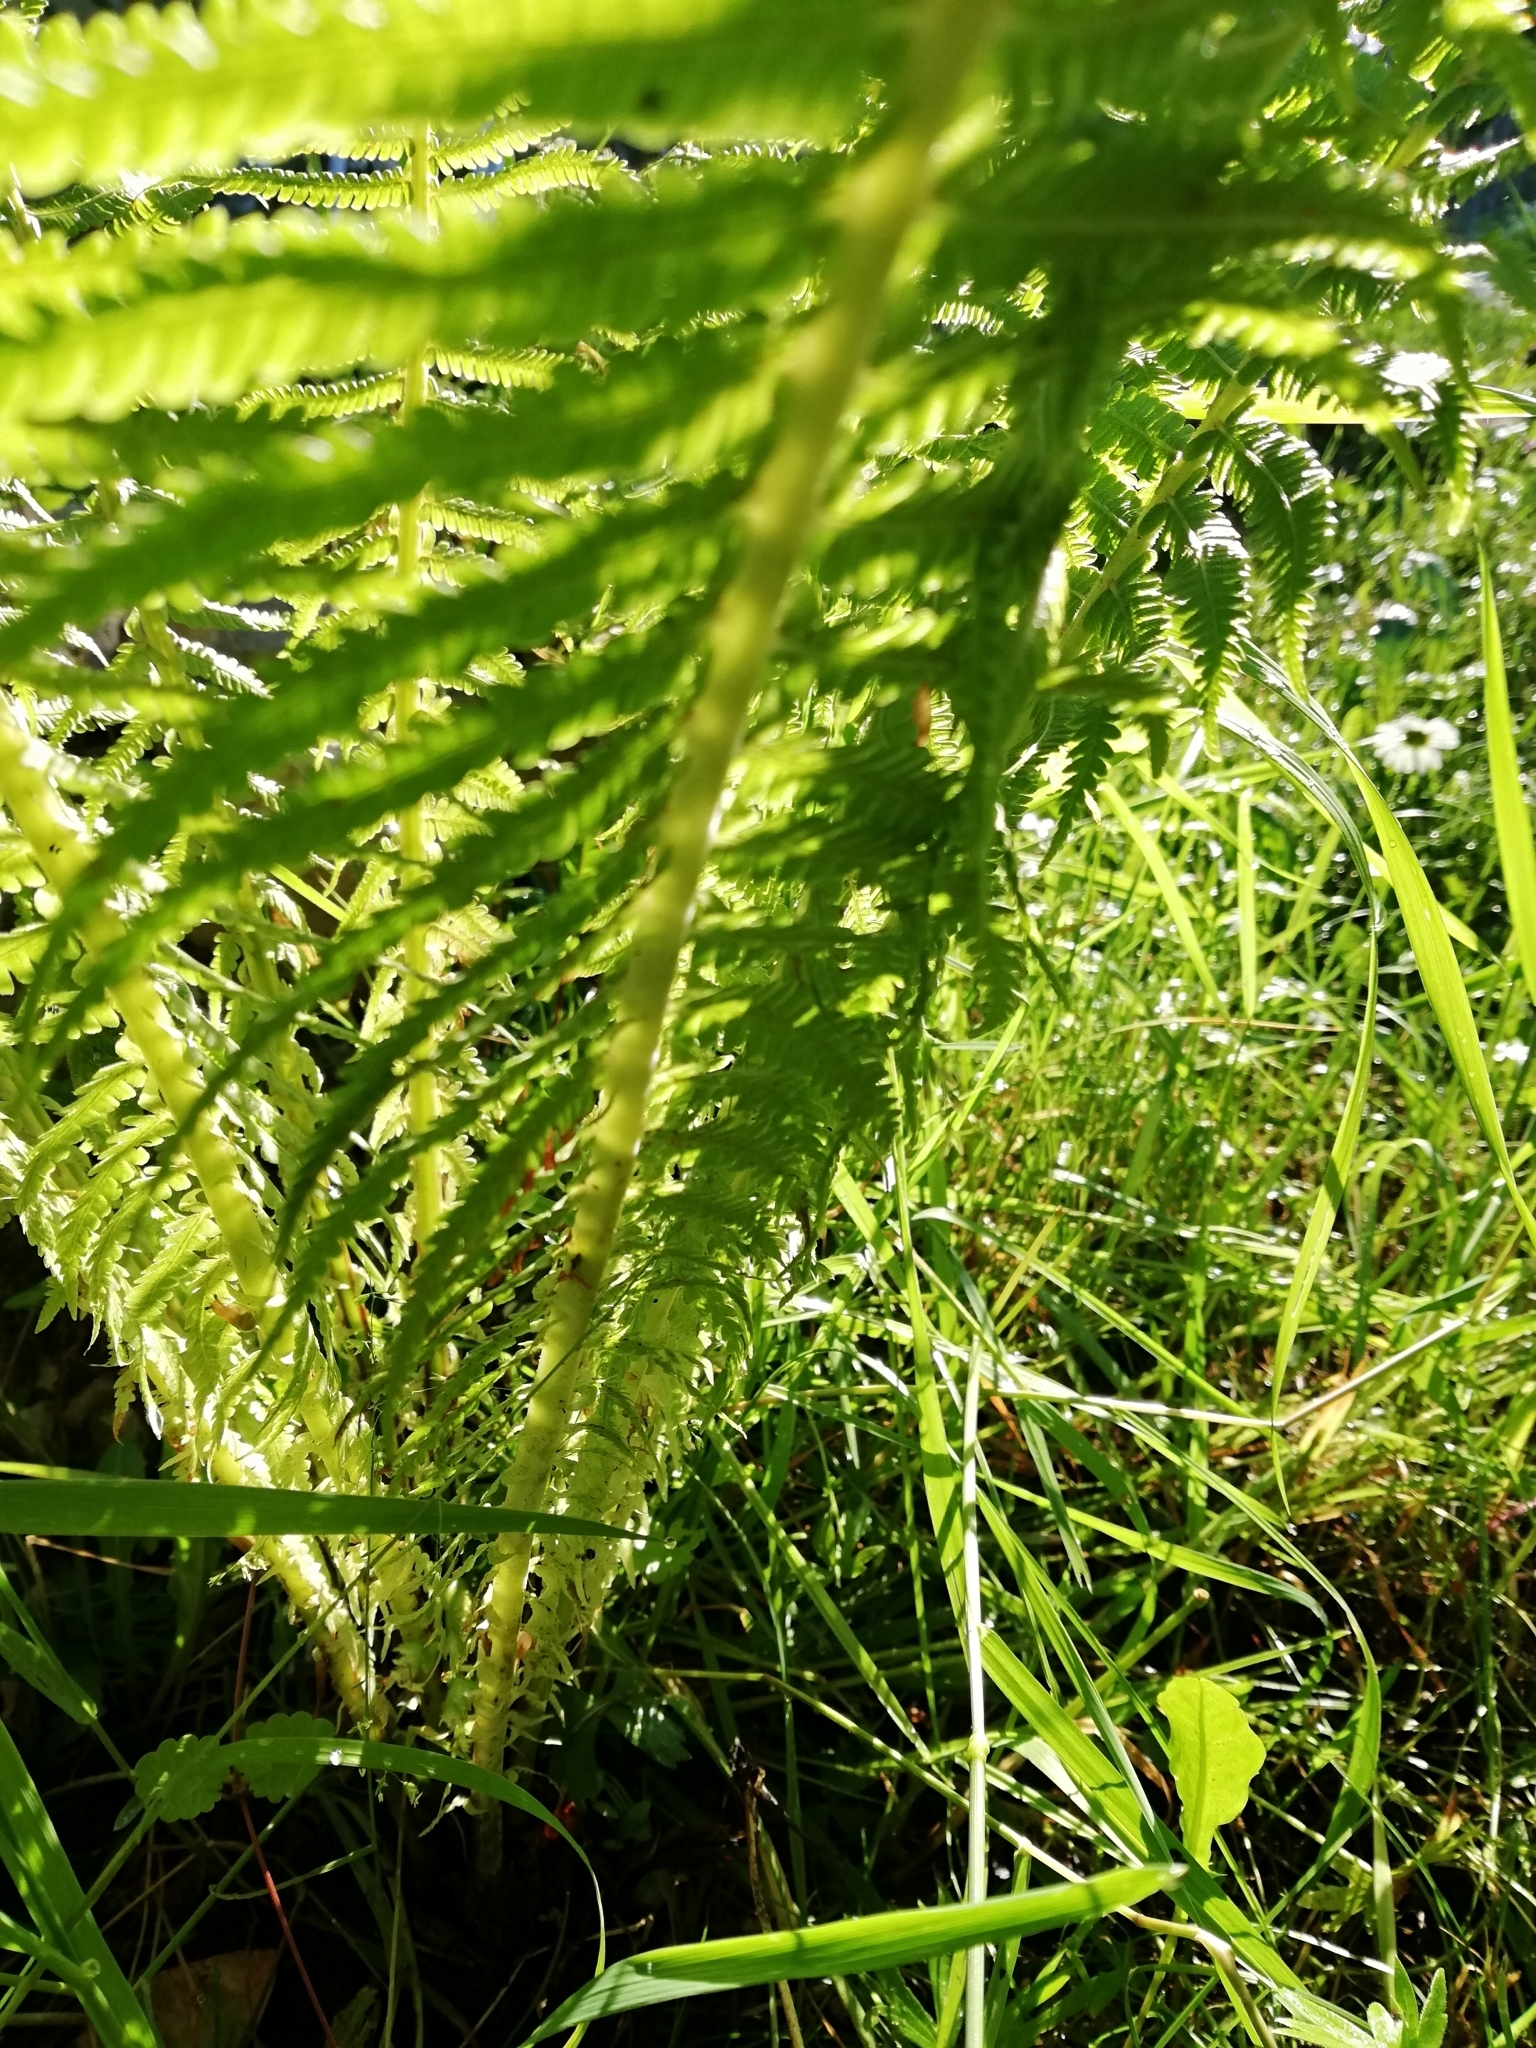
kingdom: Plantae
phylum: Tracheophyta
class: Polypodiopsida
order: Polypodiales
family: Onocleaceae
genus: Matteuccia
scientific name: Matteuccia struthiopteris
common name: Ostrich fern
